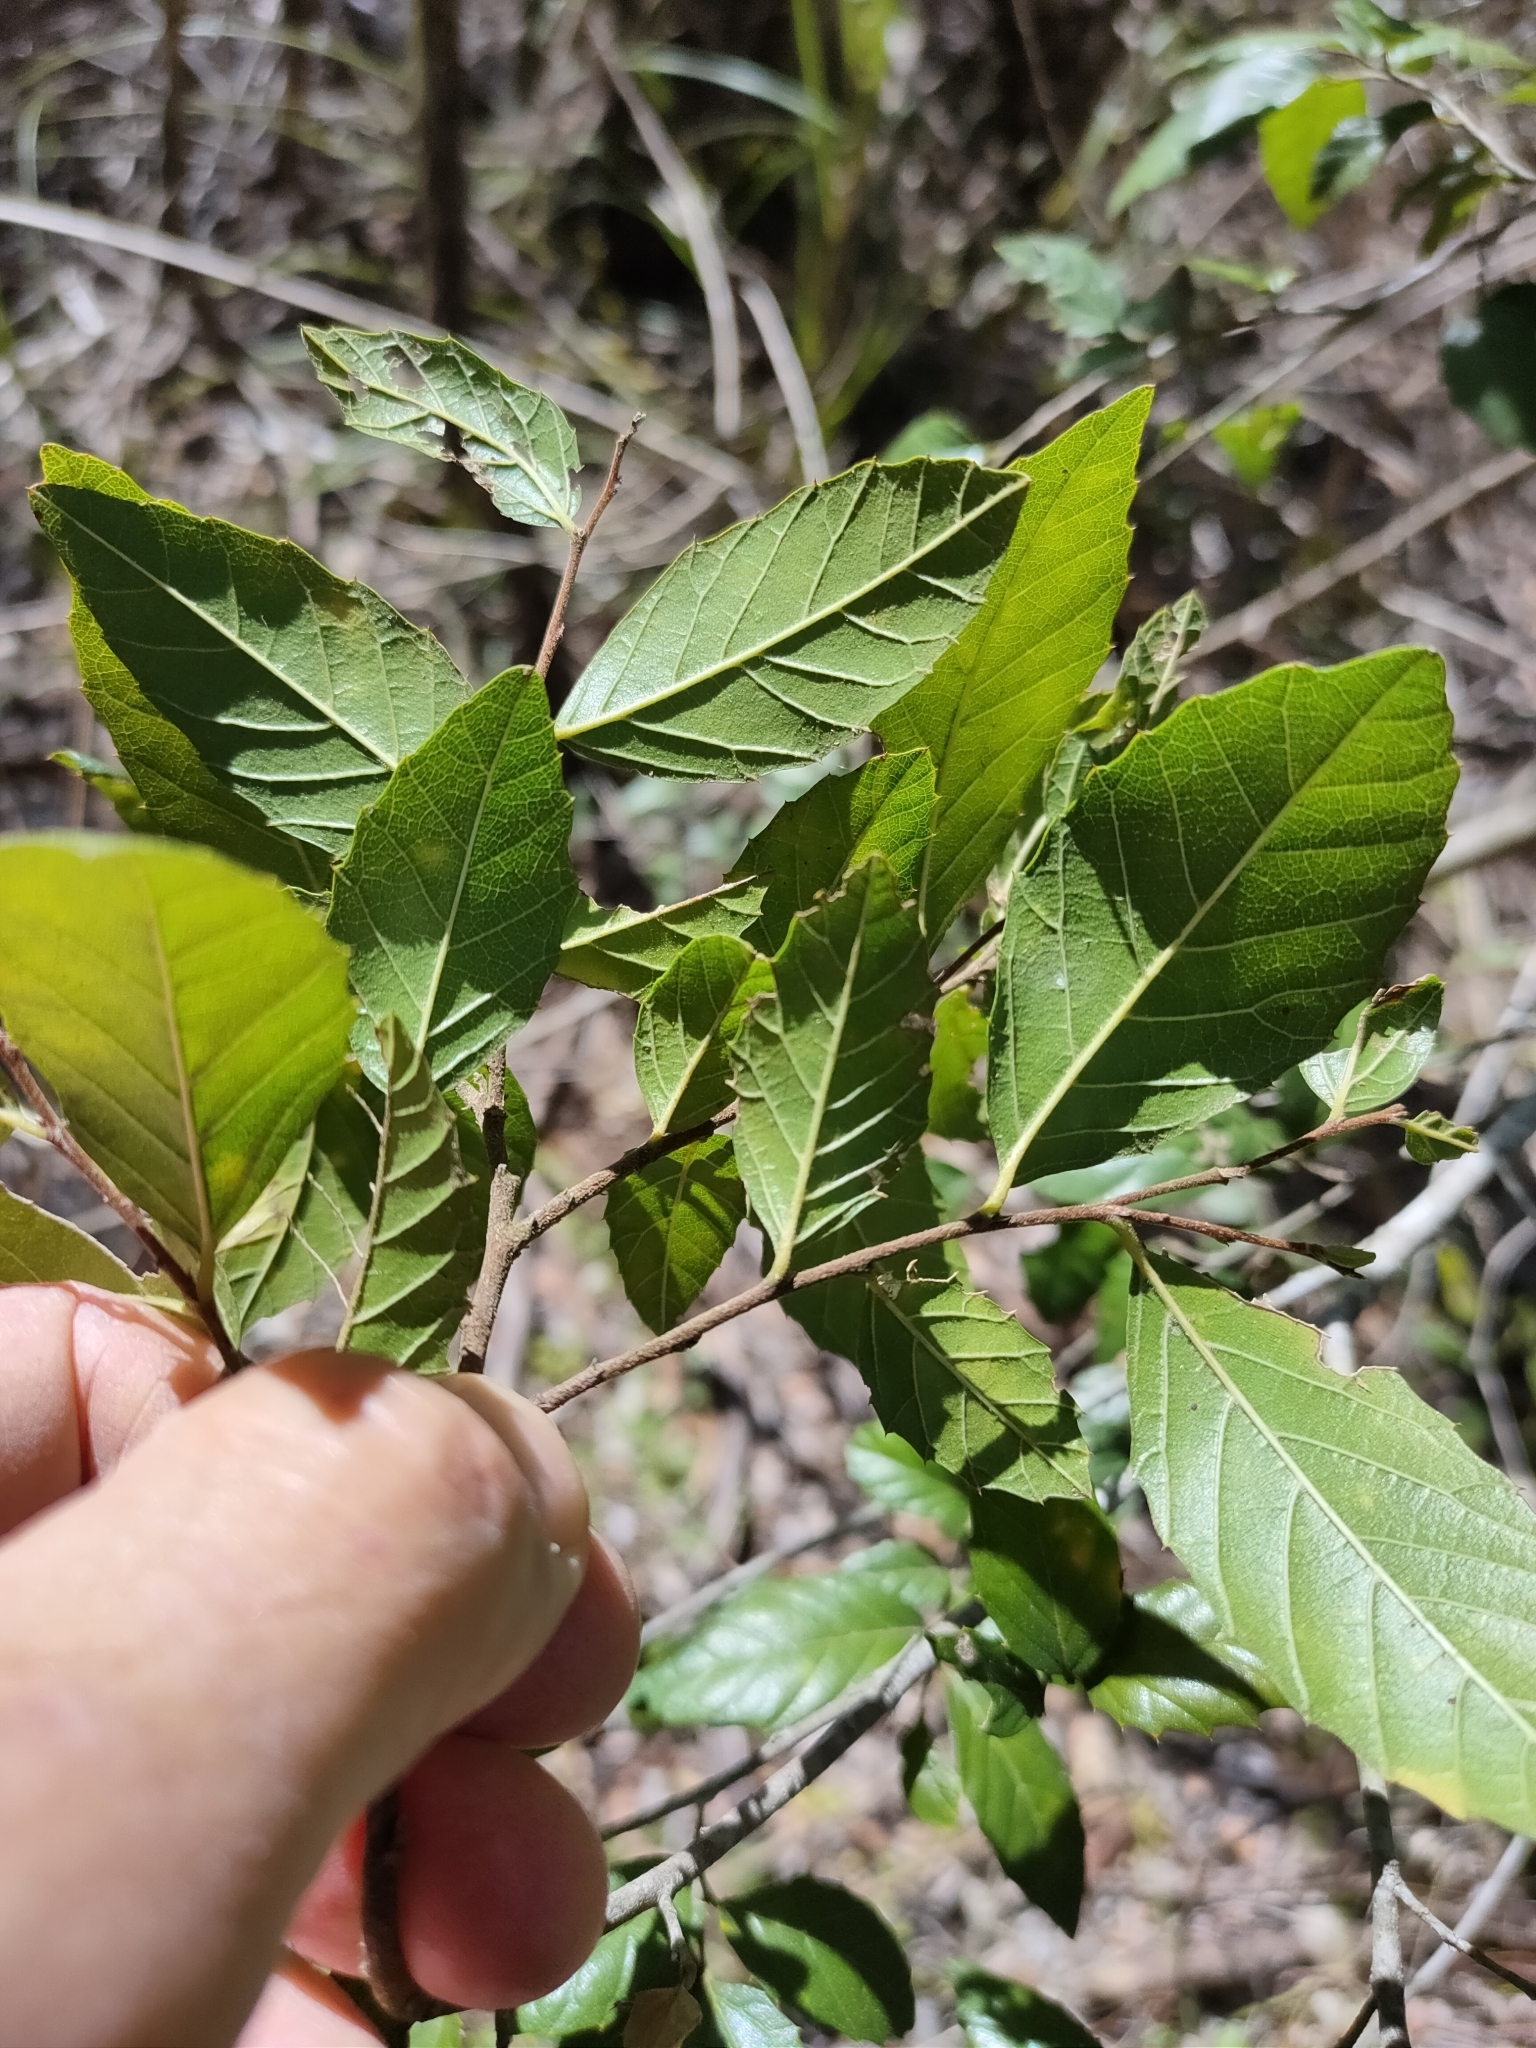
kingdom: Plantae
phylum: Tracheophyta
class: Magnoliopsida
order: Rosales
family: Cannabaceae
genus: Aphananthe
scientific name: Aphananthe philippinensis
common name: Wild holly
